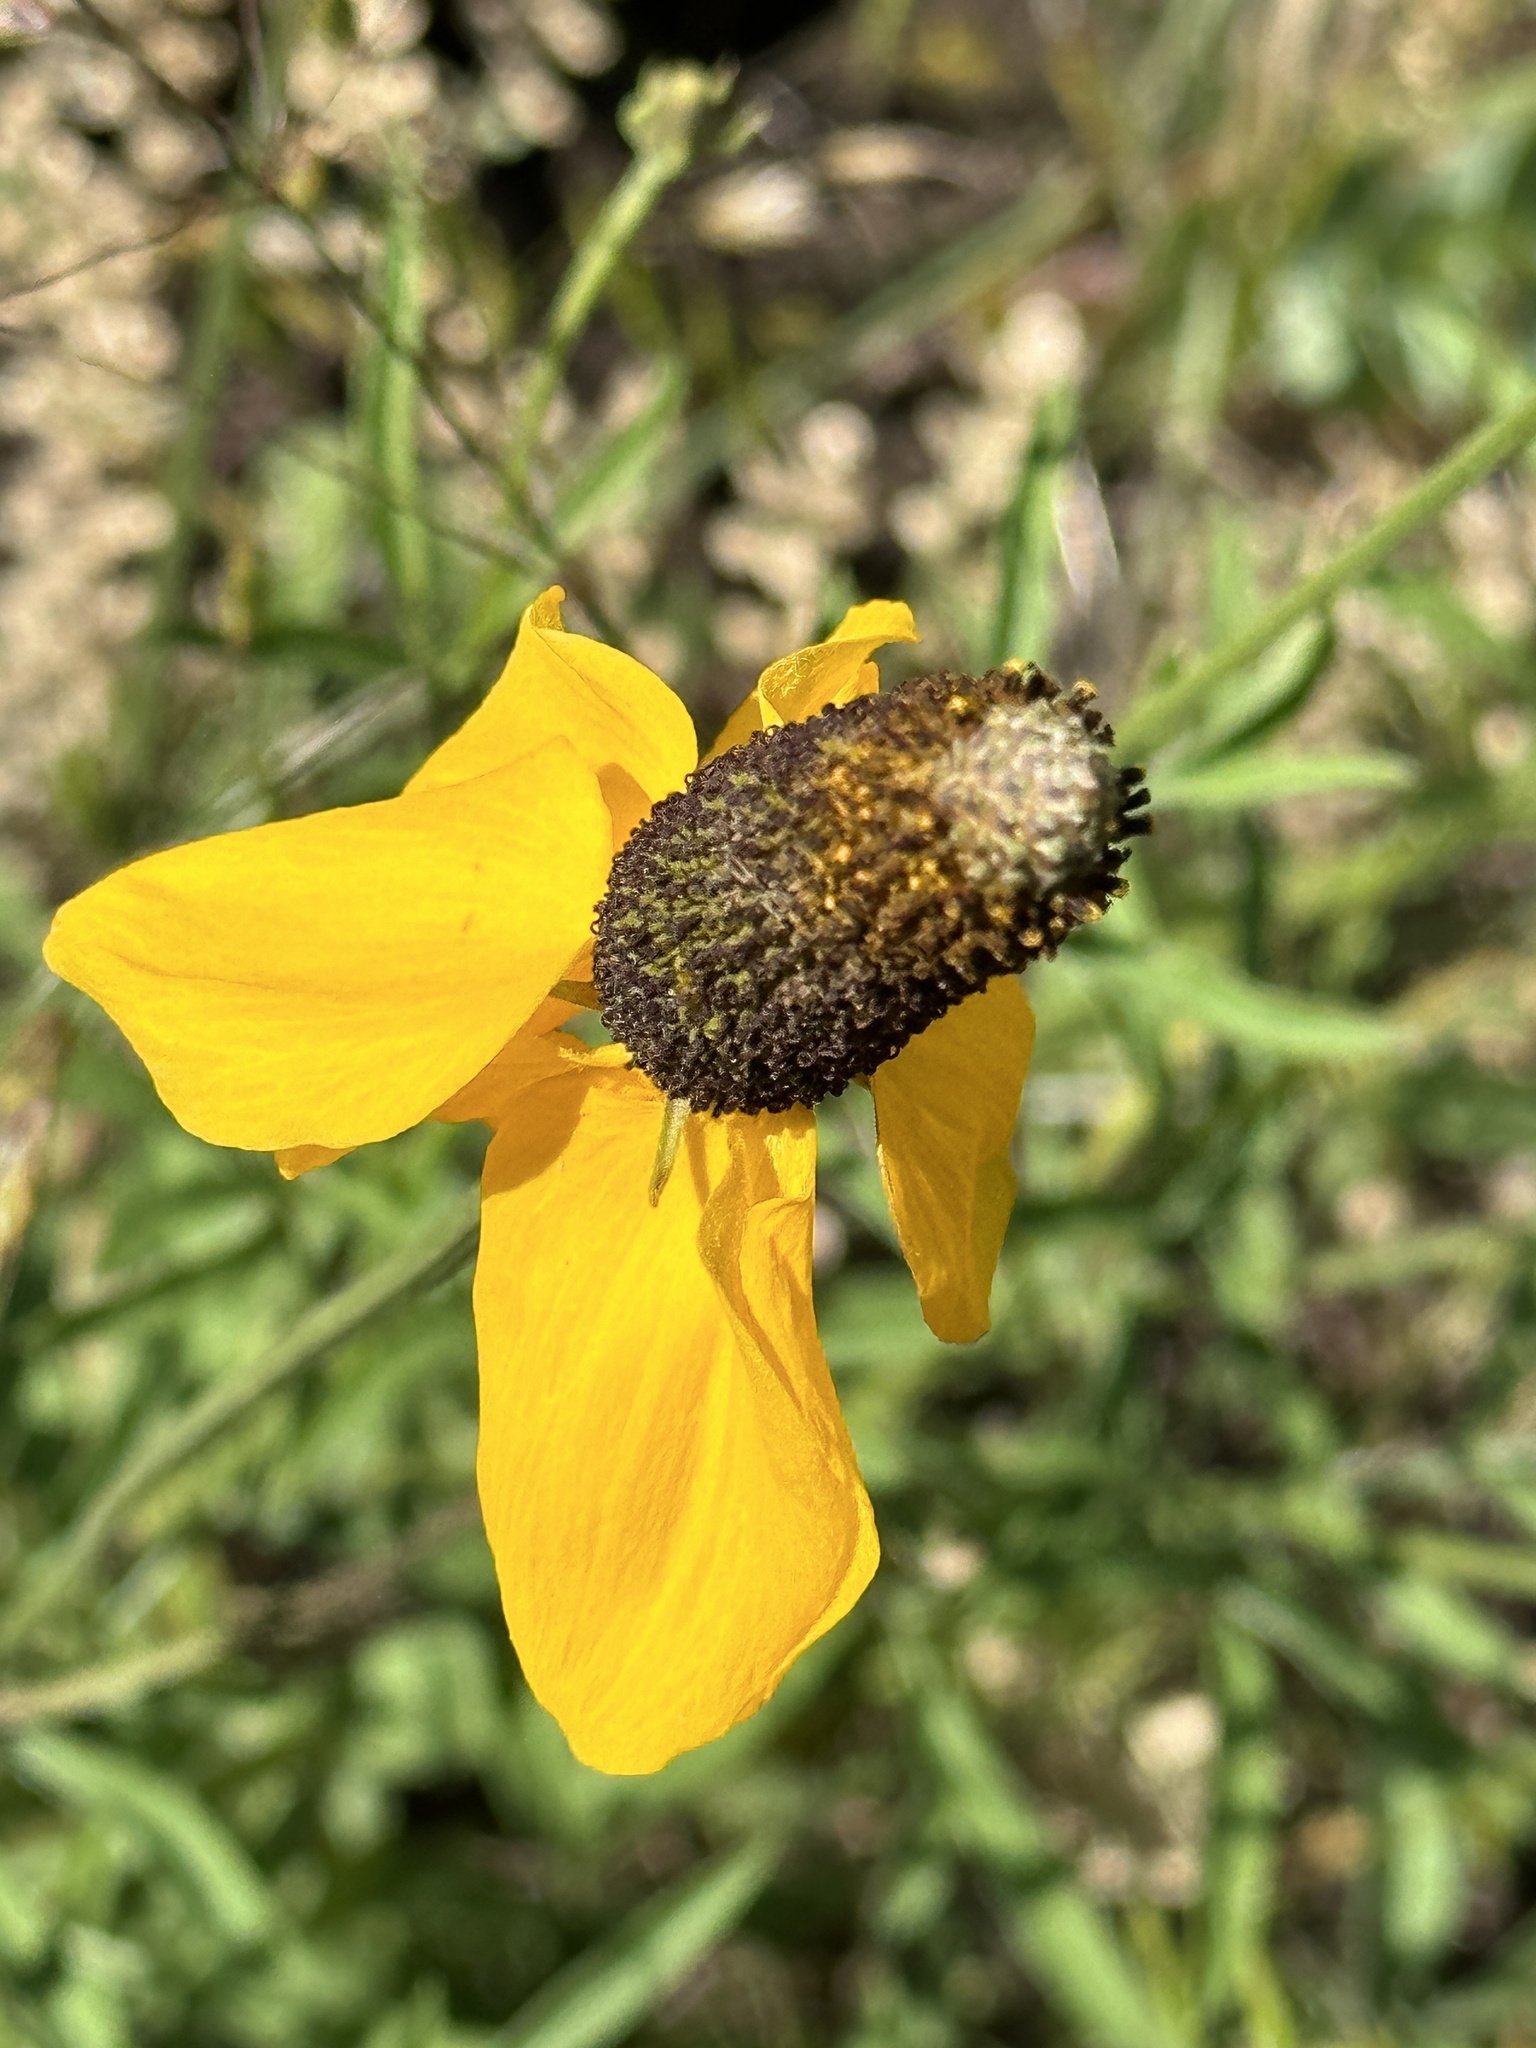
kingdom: Plantae
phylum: Tracheophyta
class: Magnoliopsida
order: Asterales
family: Asteraceae
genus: Ratibida
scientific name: Ratibida columnifera
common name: Prairie coneflower
